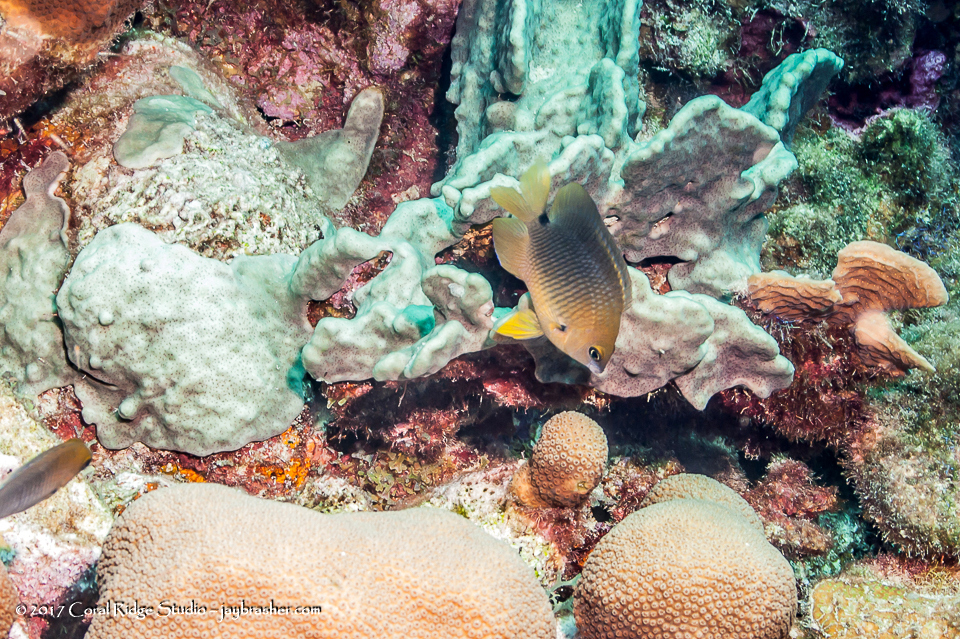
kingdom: Animalia
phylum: Chordata
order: Perciformes
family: Pomacentridae
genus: Stegastes
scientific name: Stegastes planifrons
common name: Threespot damselfish
